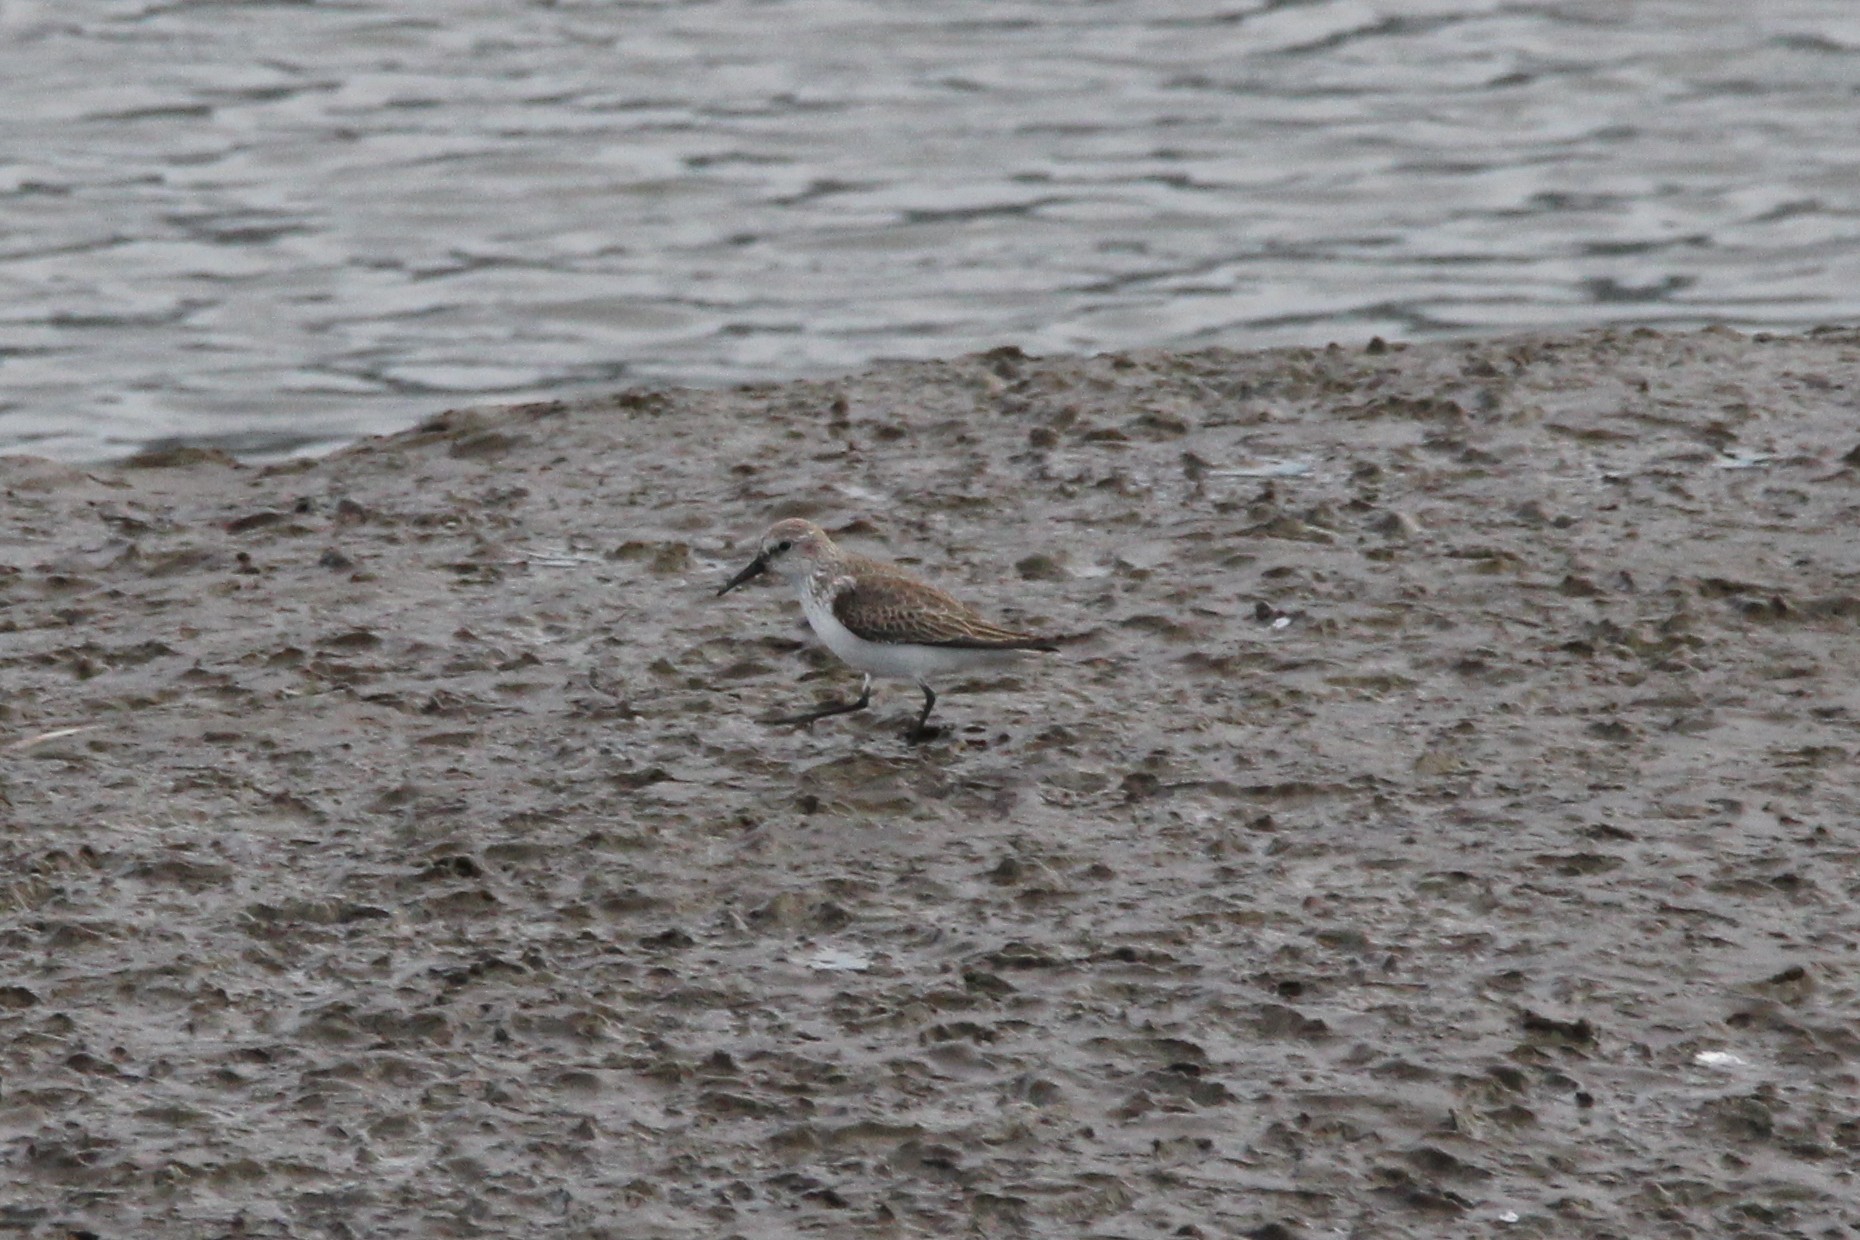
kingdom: Animalia
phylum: Chordata
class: Aves
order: Charadriiformes
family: Scolopacidae
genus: Calidris
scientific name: Calidris mauri
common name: Western sandpiper
